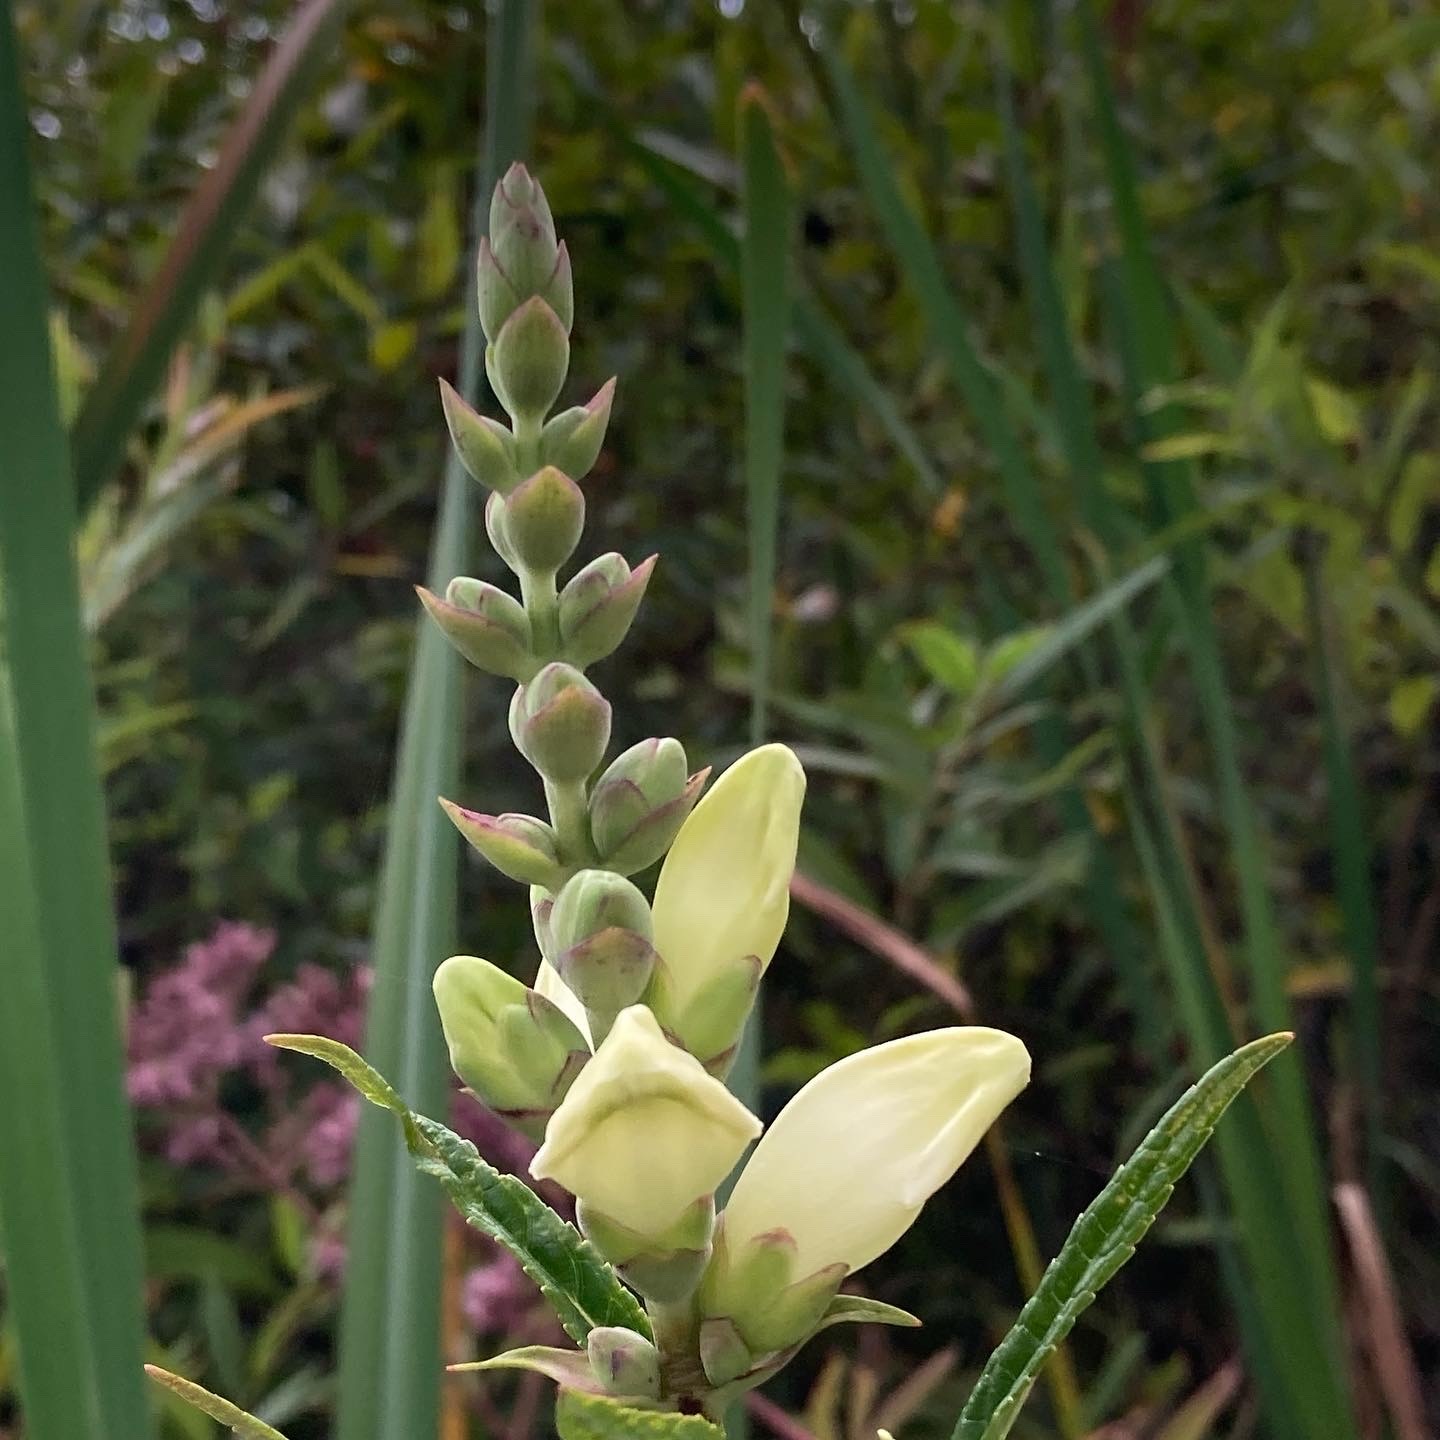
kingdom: Plantae
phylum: Tracheophyta
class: Magnoliopsida
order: Lamiales
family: Plantaginaceae
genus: Chelone
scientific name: Chelone glabra
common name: Snakehead
